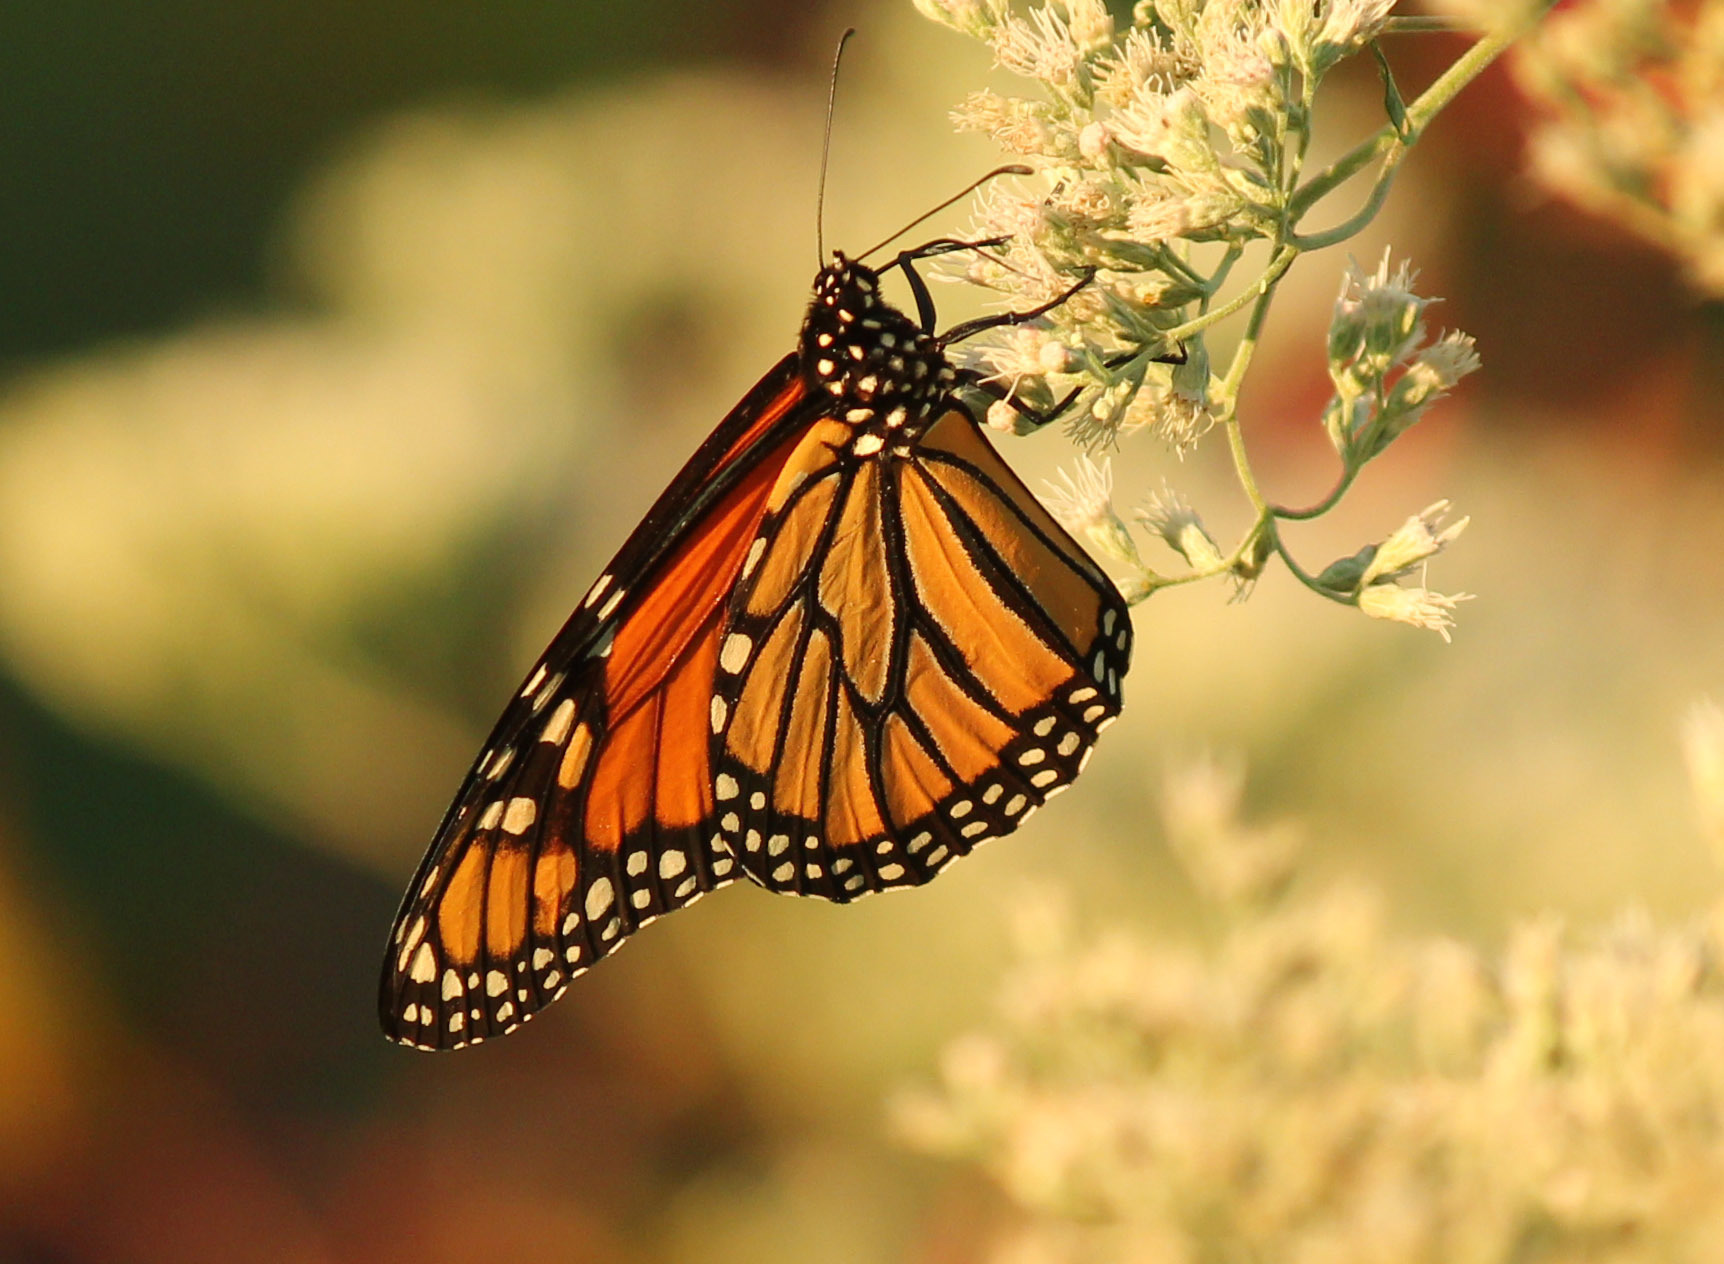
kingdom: Animalia
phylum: Arthropoda
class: Insecta
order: Lepidoptera
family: Nymphalidae
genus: Danaus
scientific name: Danaus plexippus
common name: Monarch
